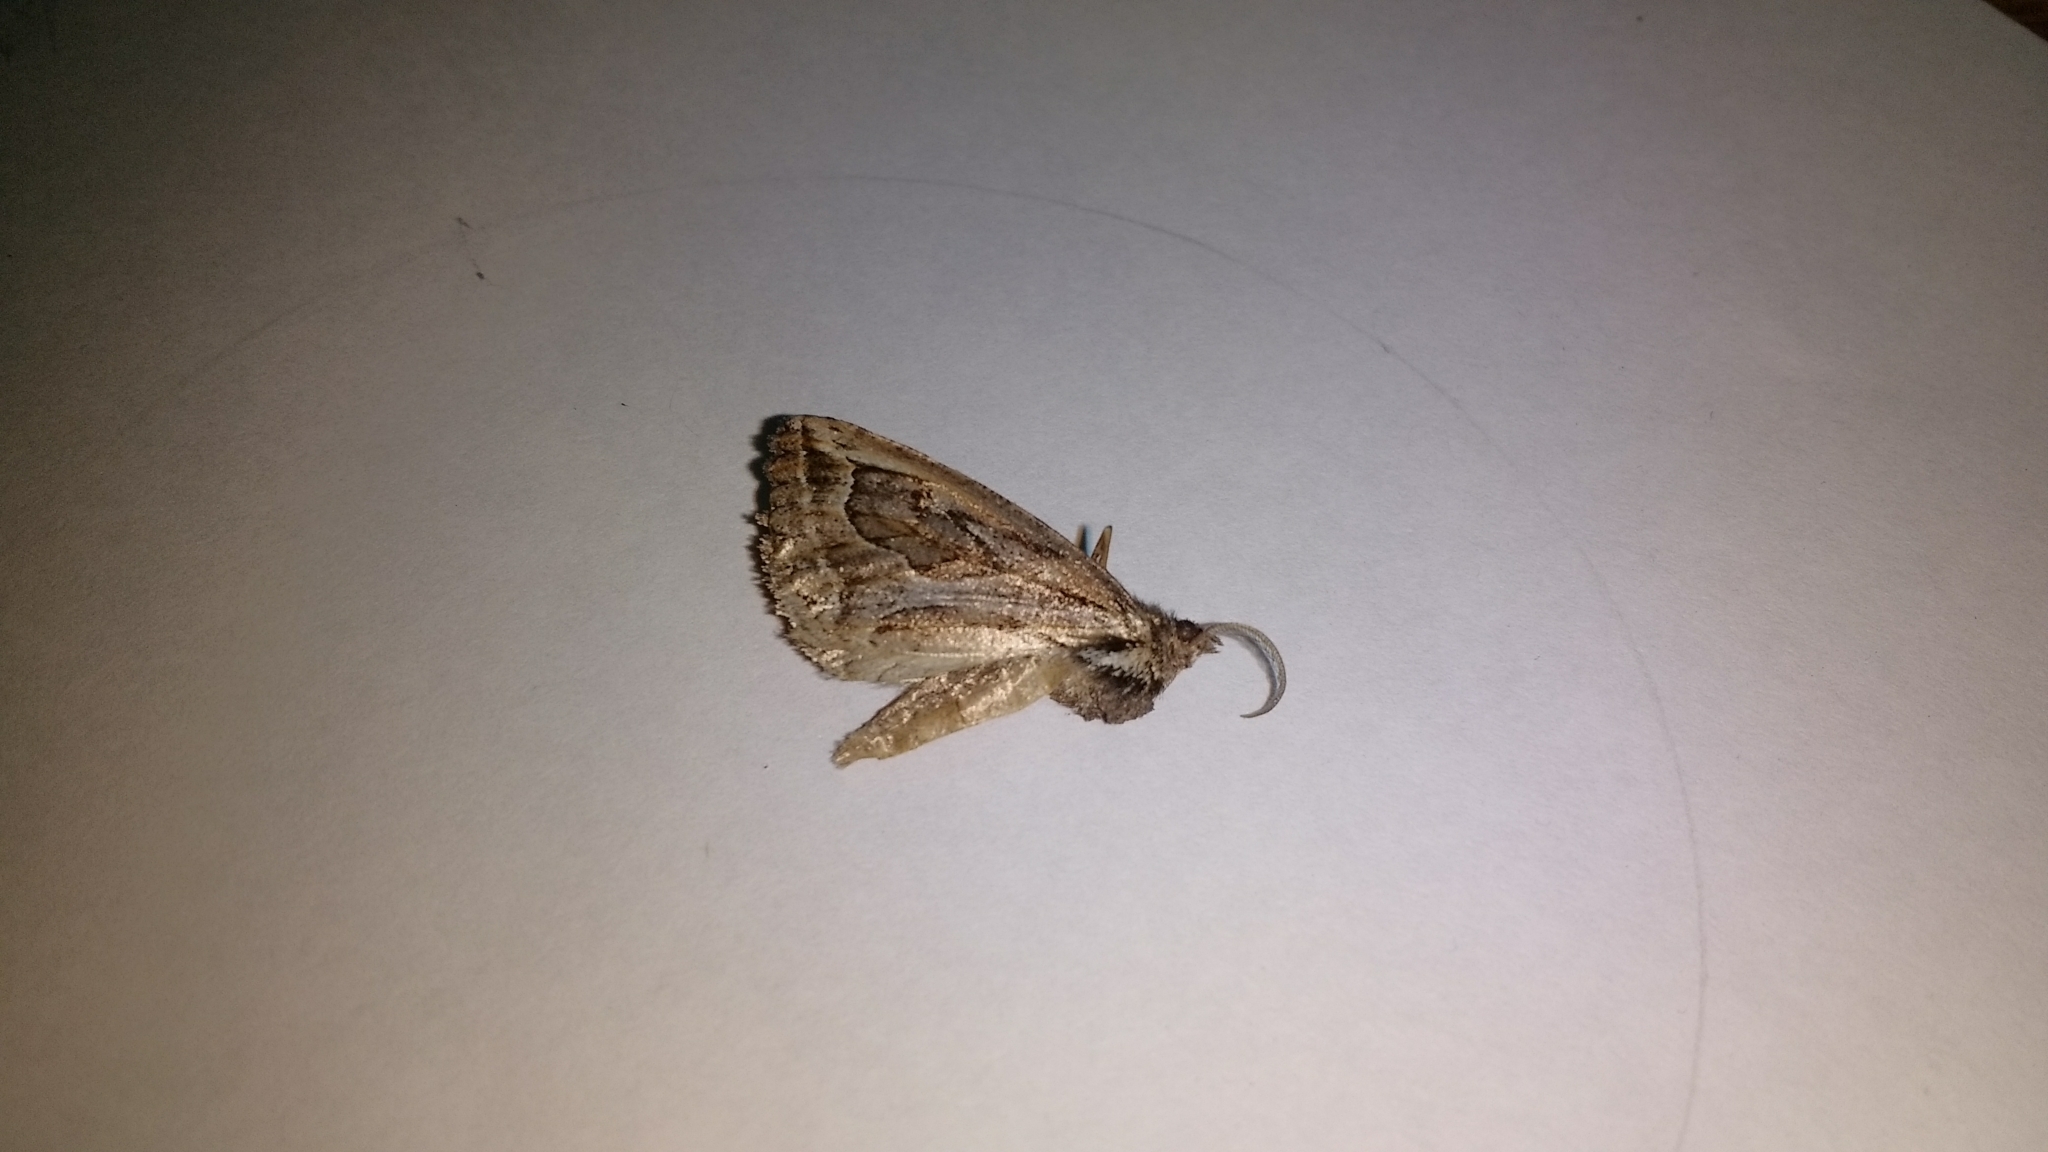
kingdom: Animalia
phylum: Arthropoda
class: Insecta
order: Lepidoptera
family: Geometridae
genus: Pseudaleucis
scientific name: Pseudaleucis
